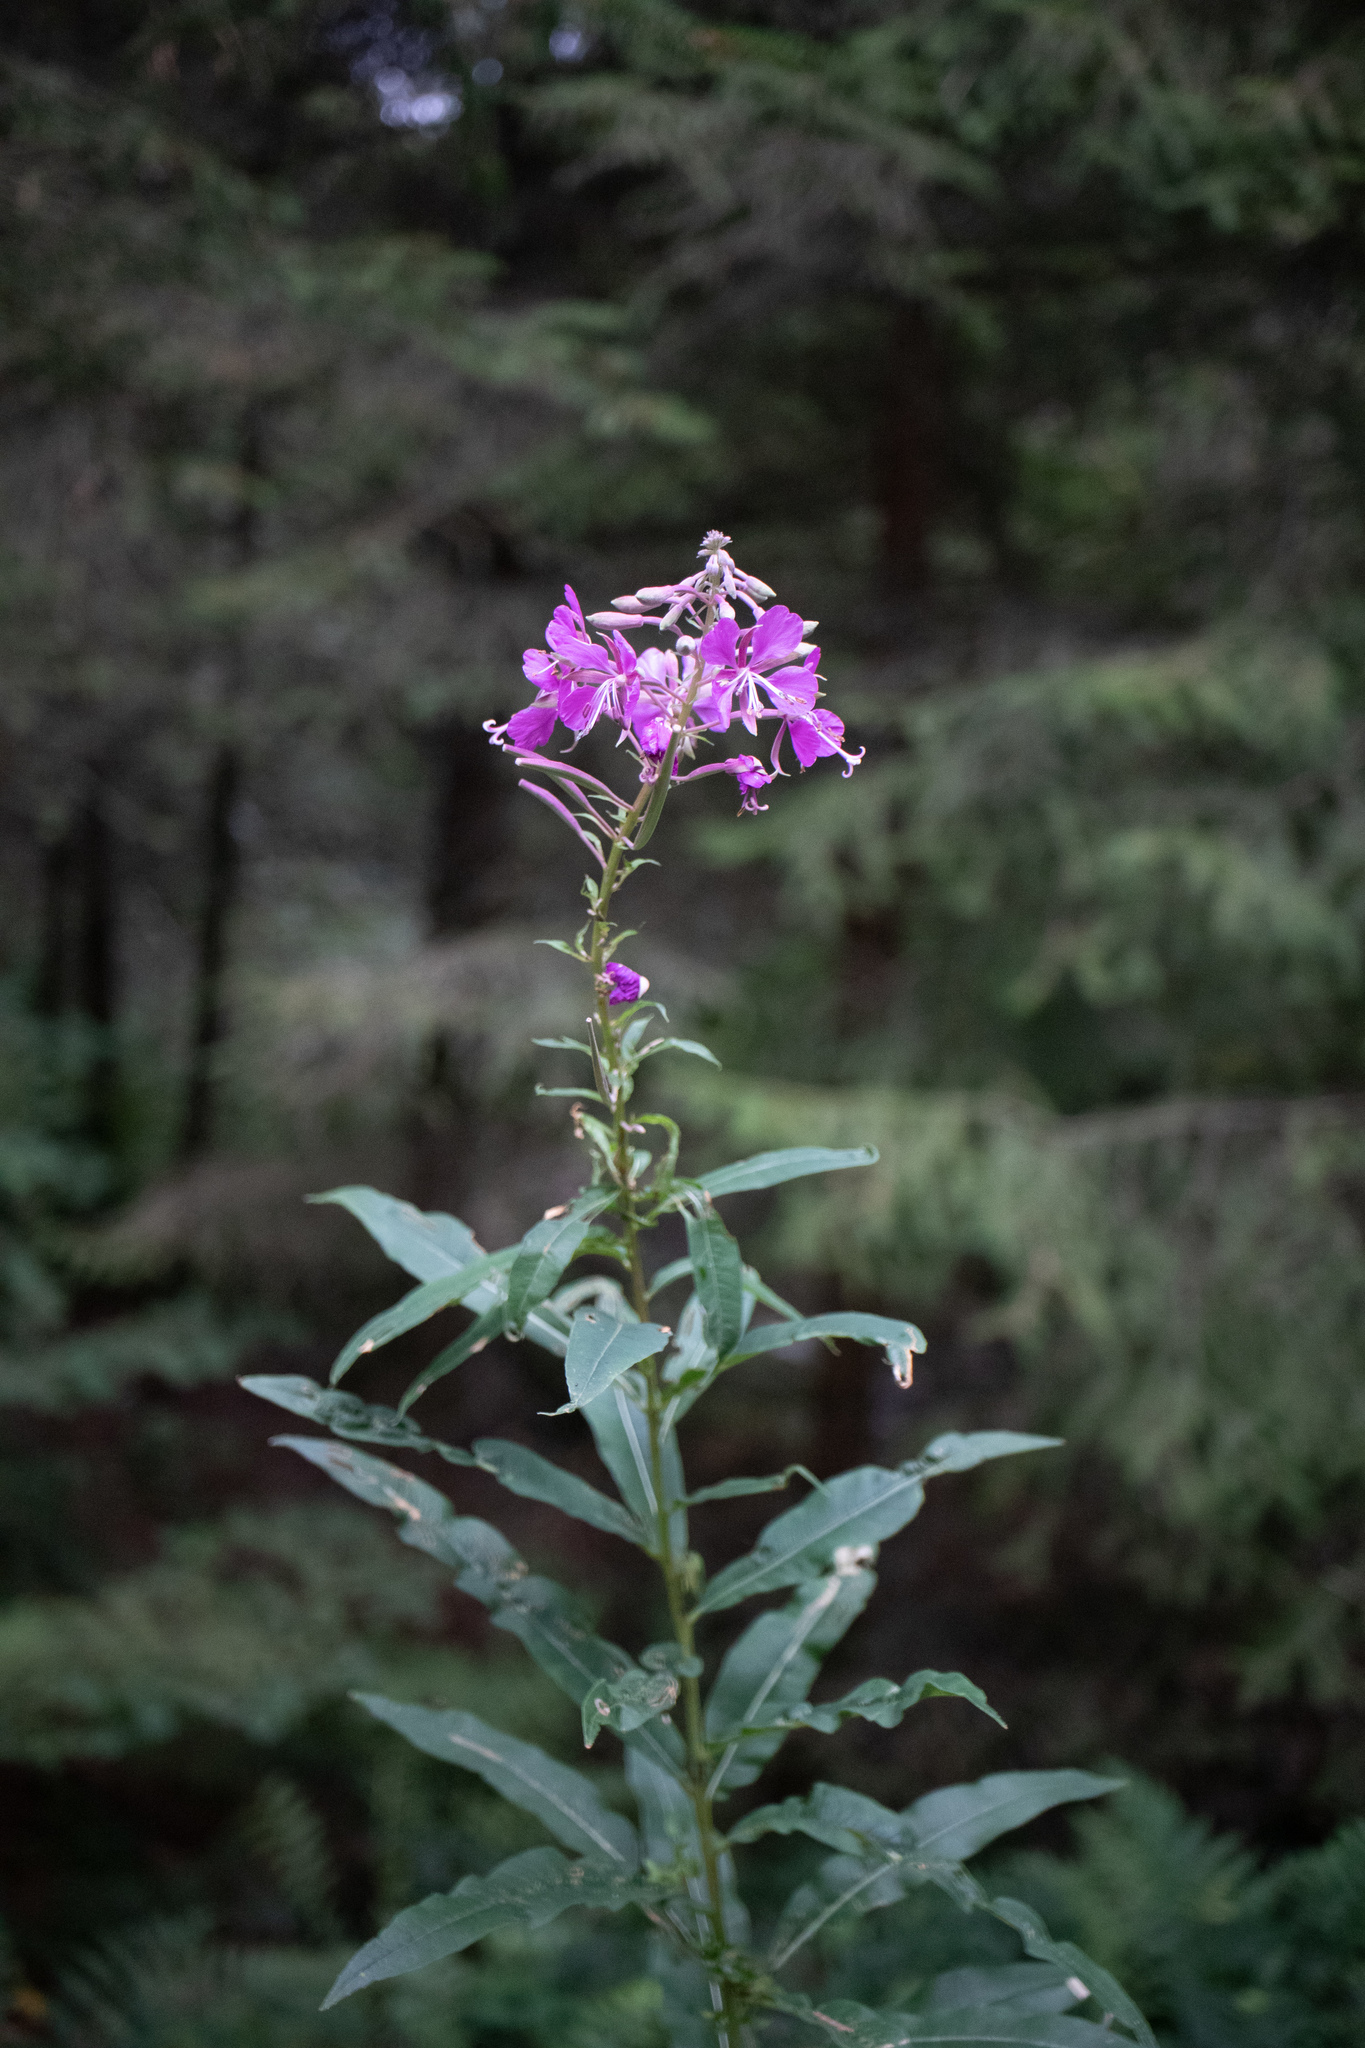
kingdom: Plantae
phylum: Tracheophyta
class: Magnoliopsida
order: Myrtales
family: Onagraceae
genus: Chamaenerion
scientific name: Chamaenerion angustifolium
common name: Fireweed
